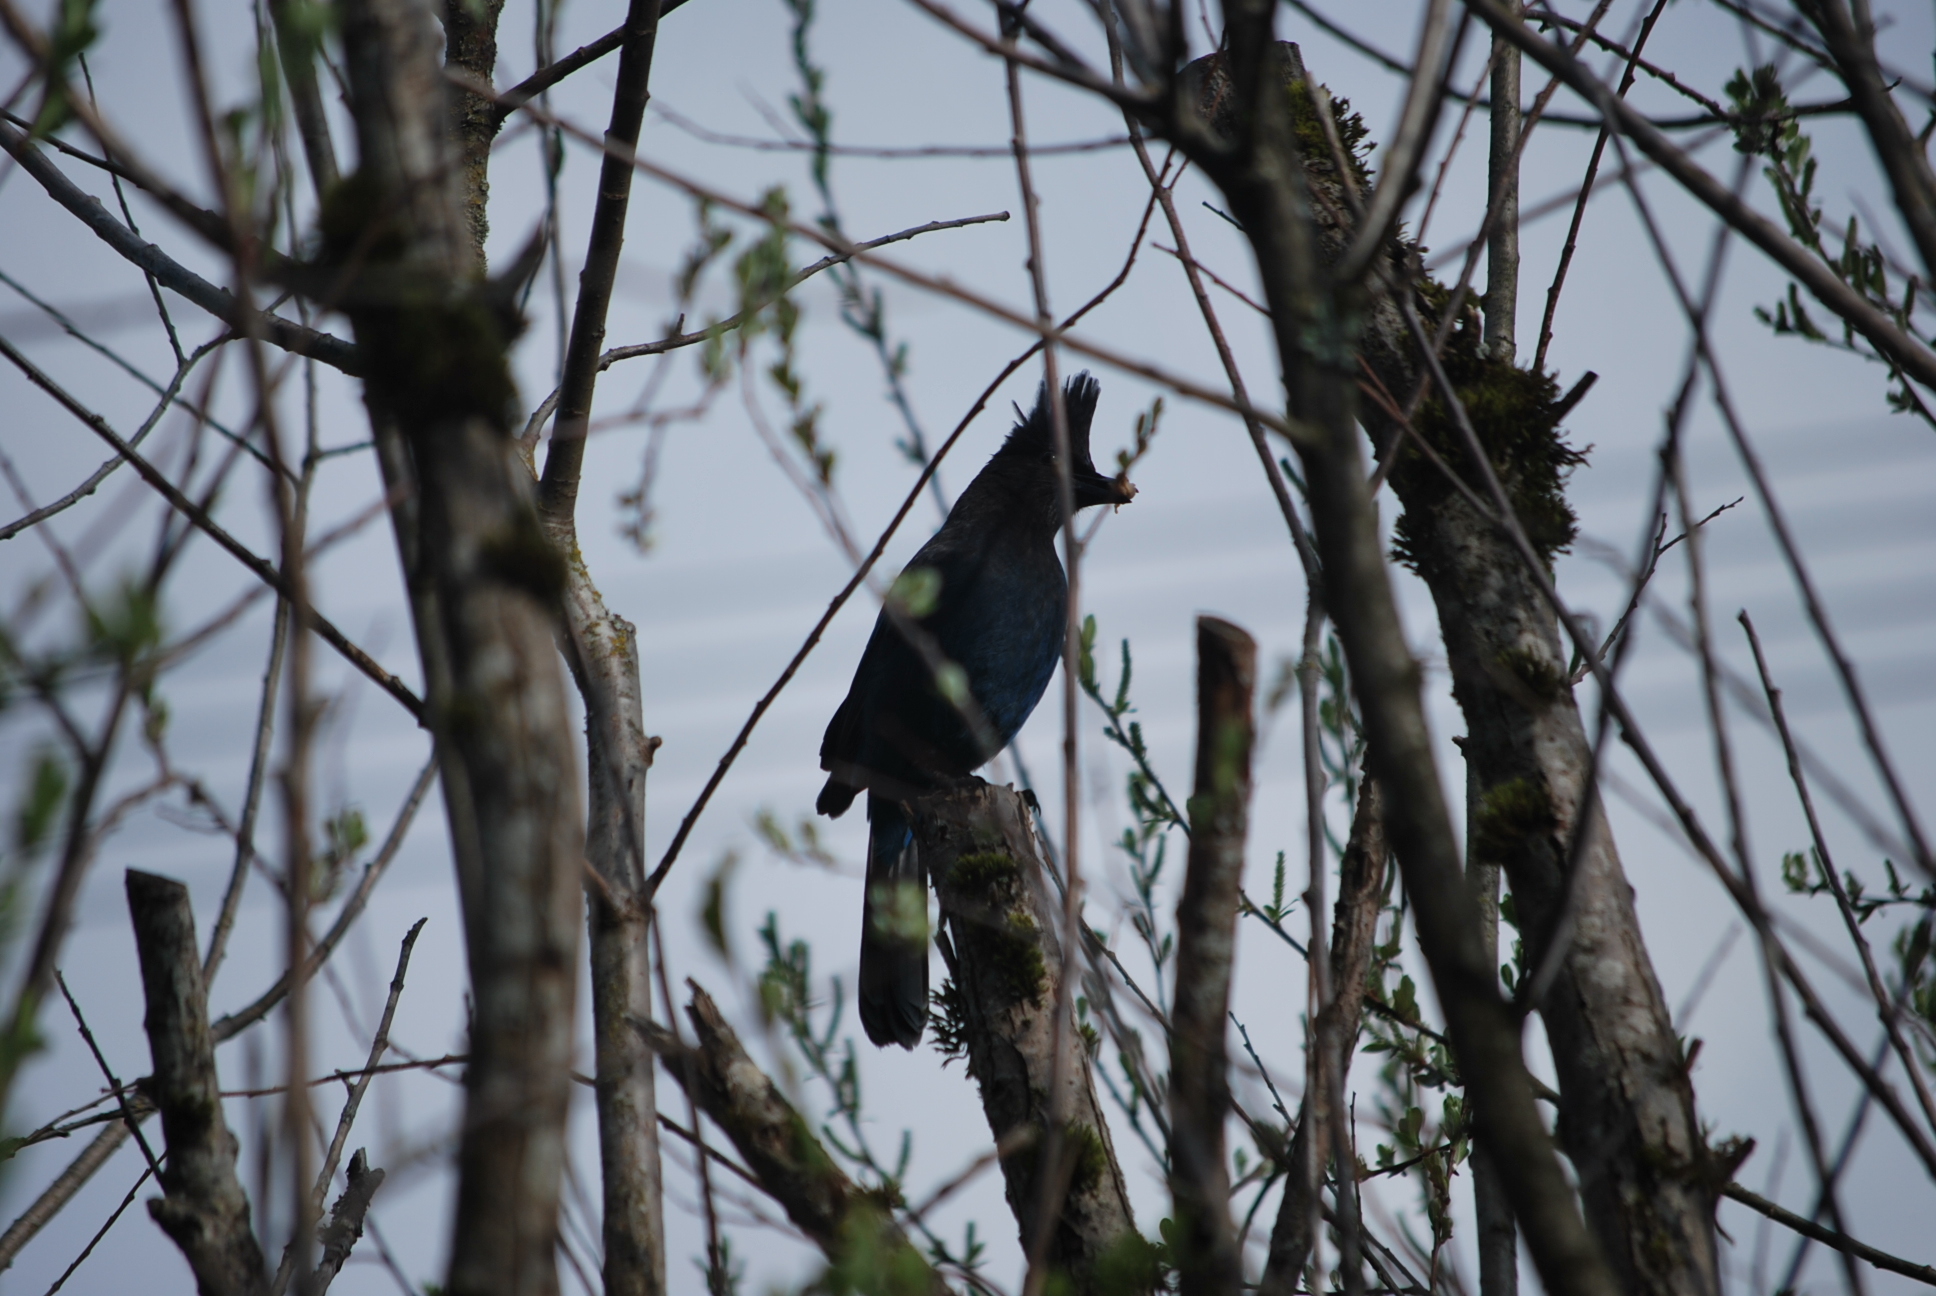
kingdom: Animalia
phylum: Chordata
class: Aves
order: Passeriformes
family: Corvidae
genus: Cyanocitta
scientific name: Cyanocitta stelleri
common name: Steller's jay
